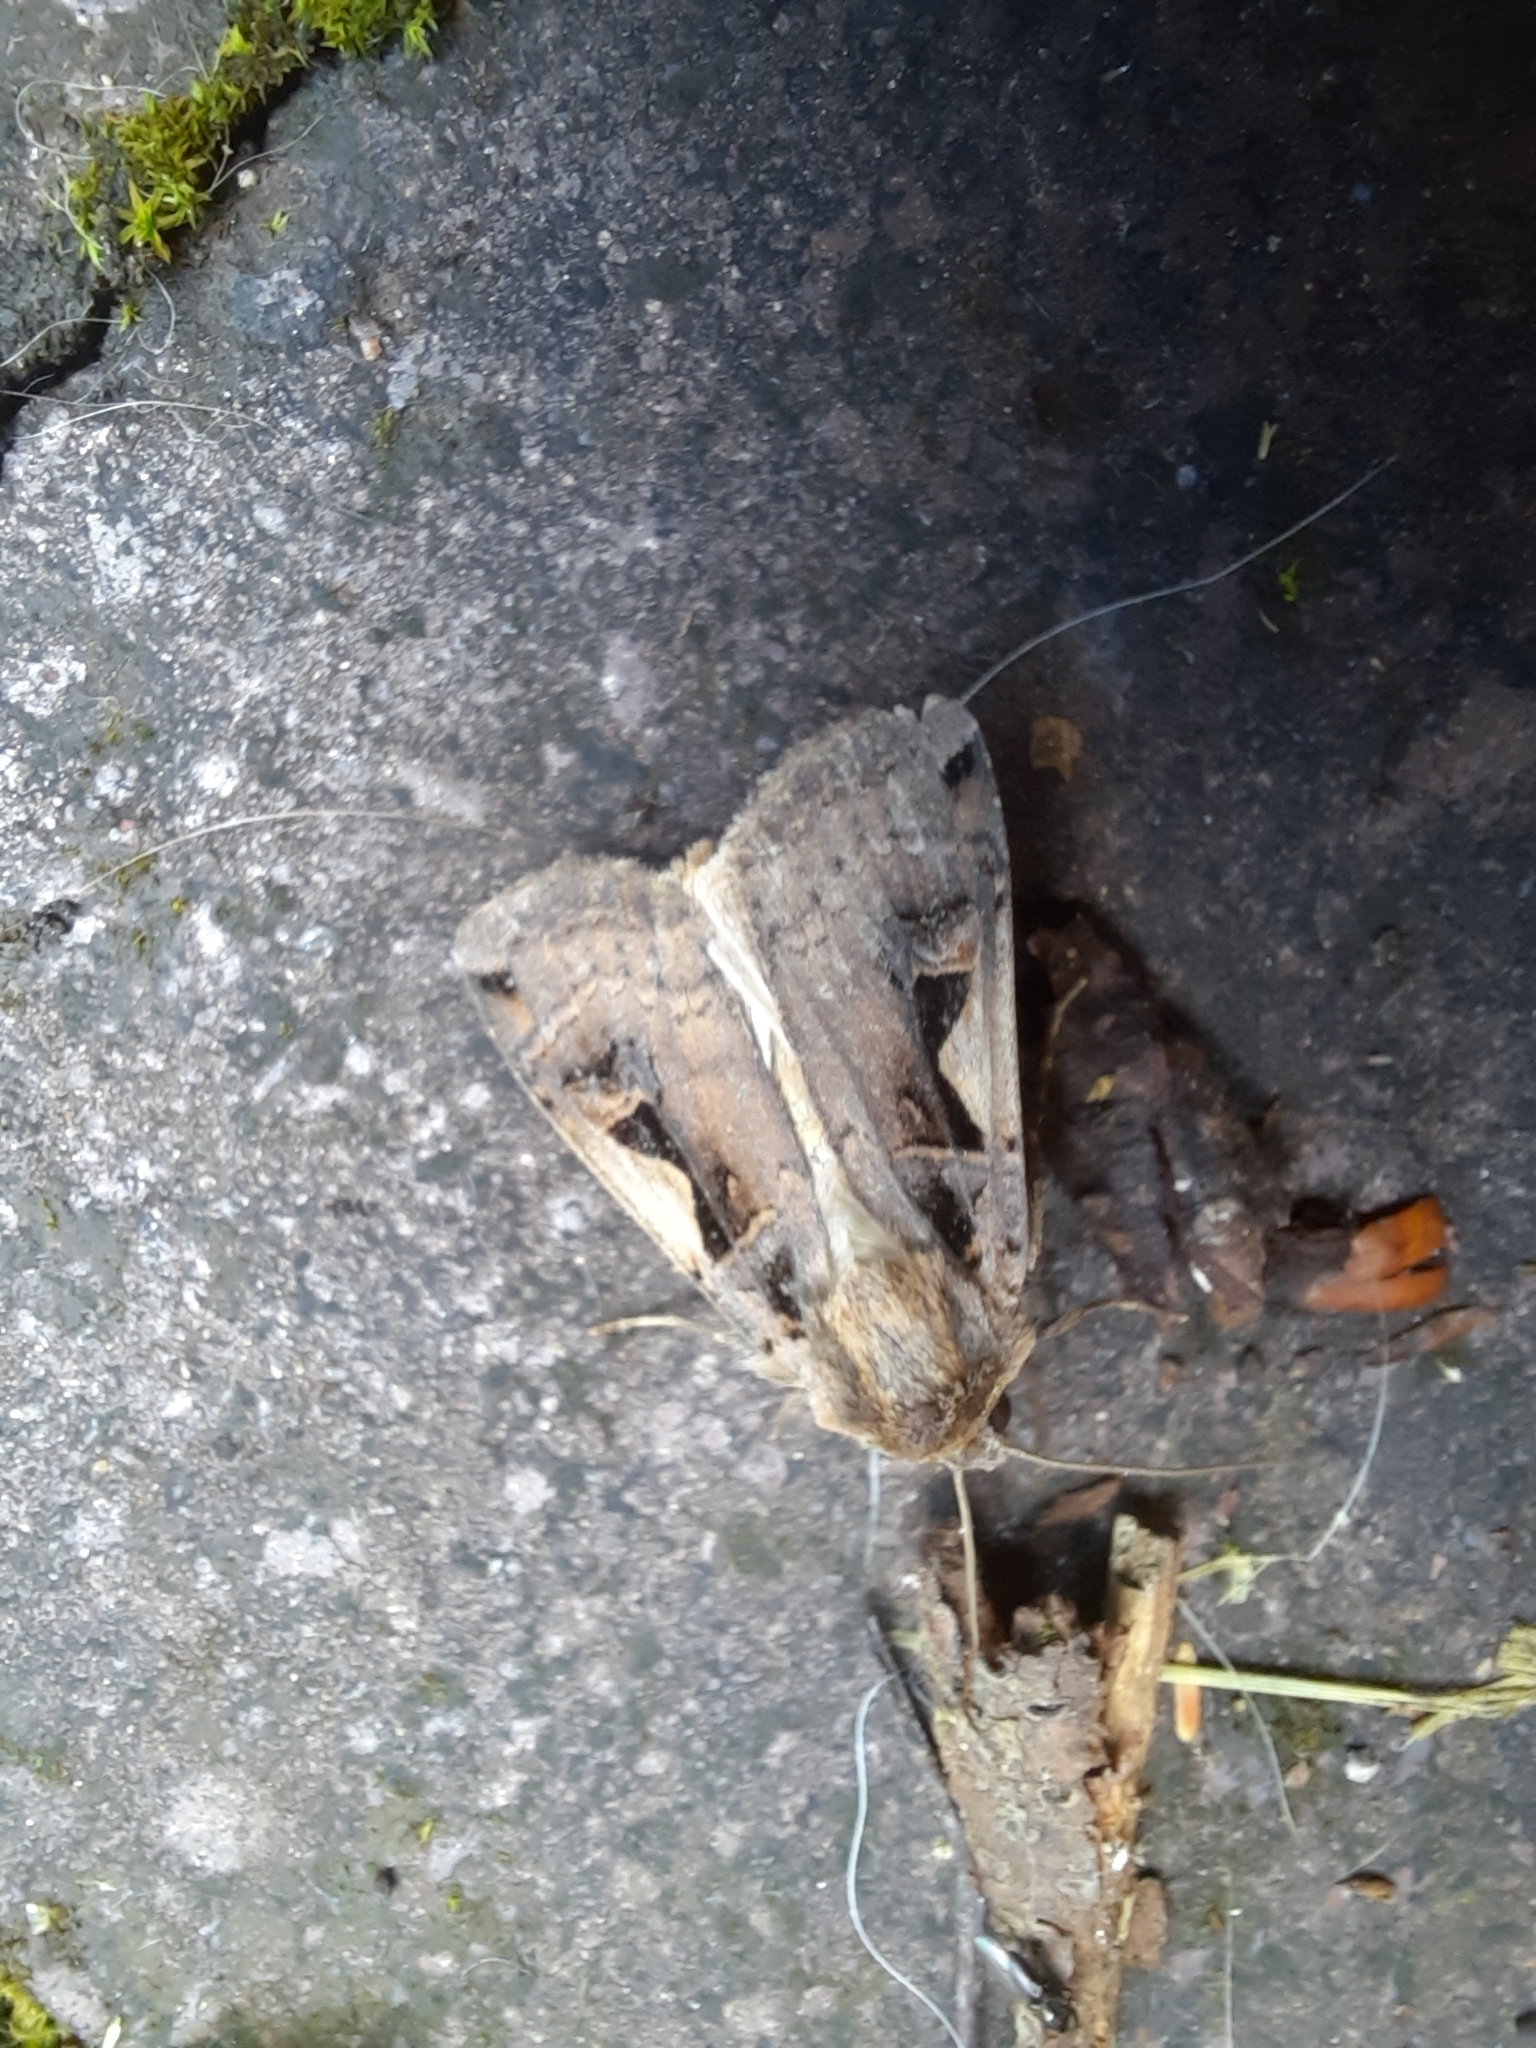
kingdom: Animalia
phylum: Arthropoda
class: Insecta
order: Lepidoptera
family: Noctuidae
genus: Xestia
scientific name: Xestia c-nigrum
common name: Setaceous hebrew character
